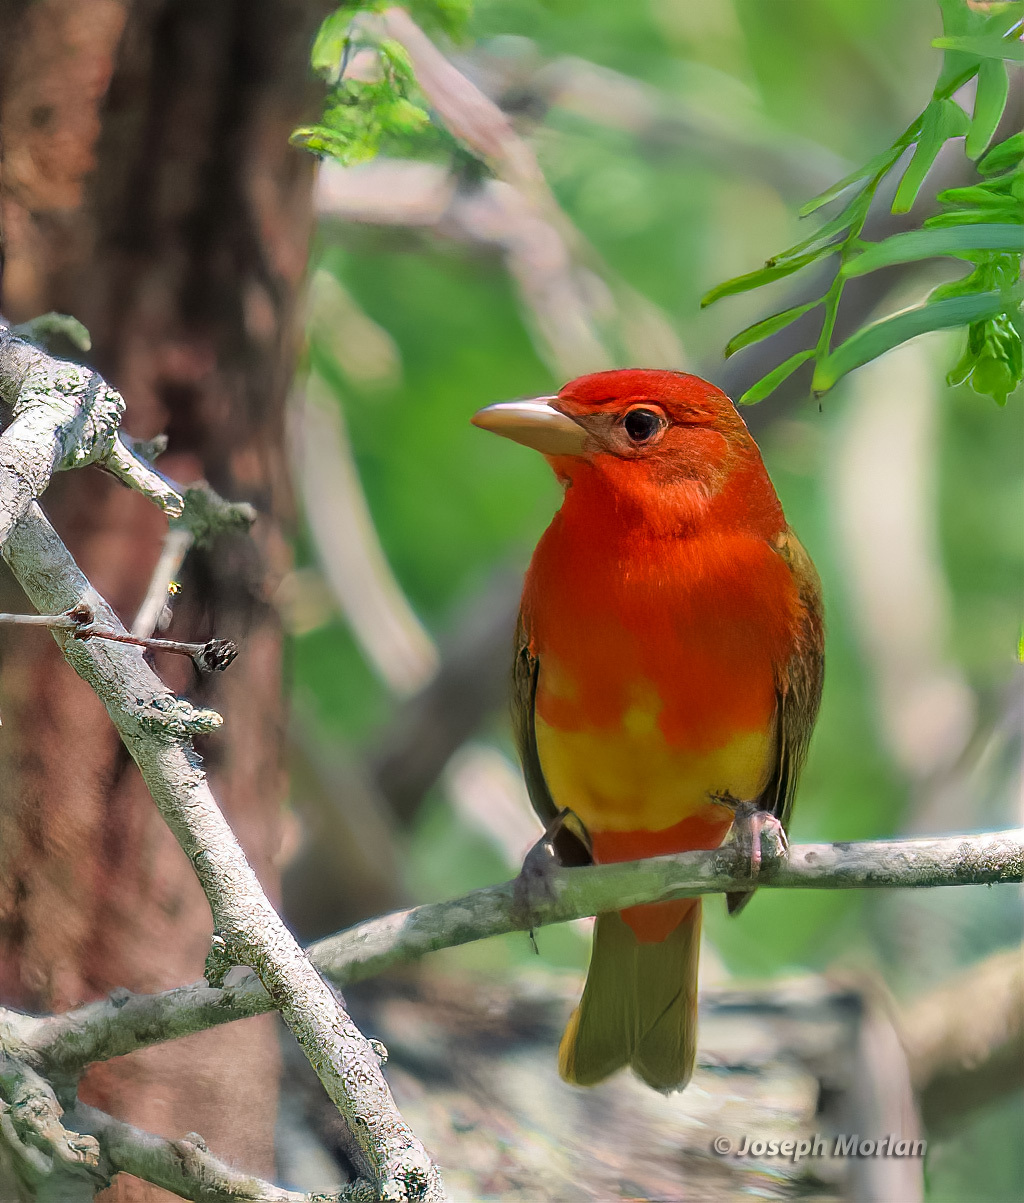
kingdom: Animalia
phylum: Chordata
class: Aves
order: Passeriformes
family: Cardinalidae
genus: Piranga
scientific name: Piranga rubra
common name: Summer tanager
